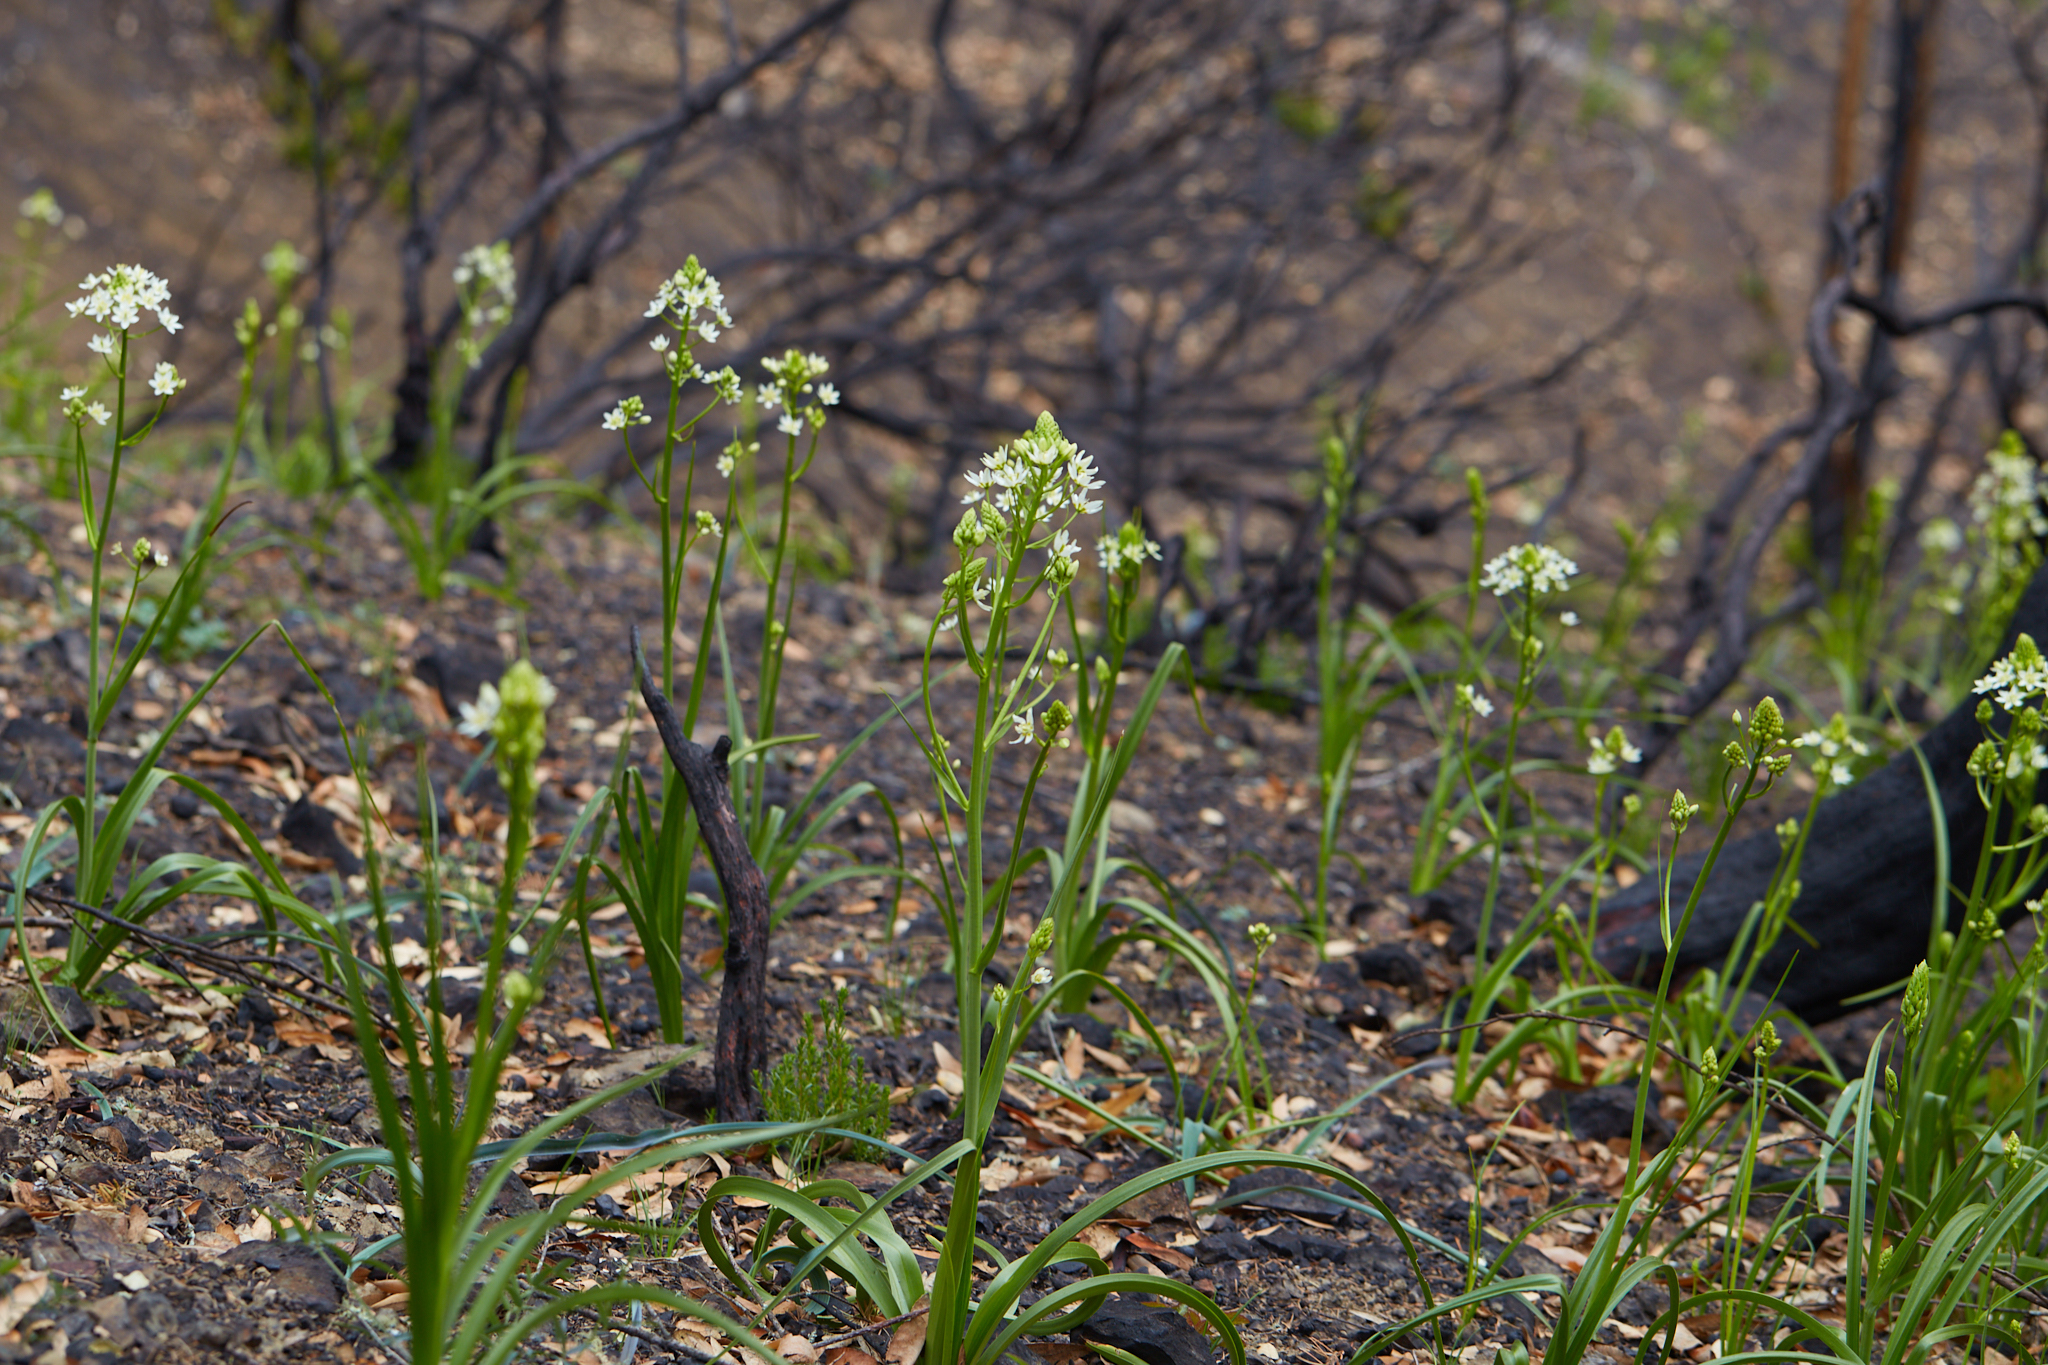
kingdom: Plantae
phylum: Tracheophyta
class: Liliopsida
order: Liliales
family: Melanthiaceae
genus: Toxicoscordion
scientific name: Toxicoscordion fremontii
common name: Fremont's death camas
